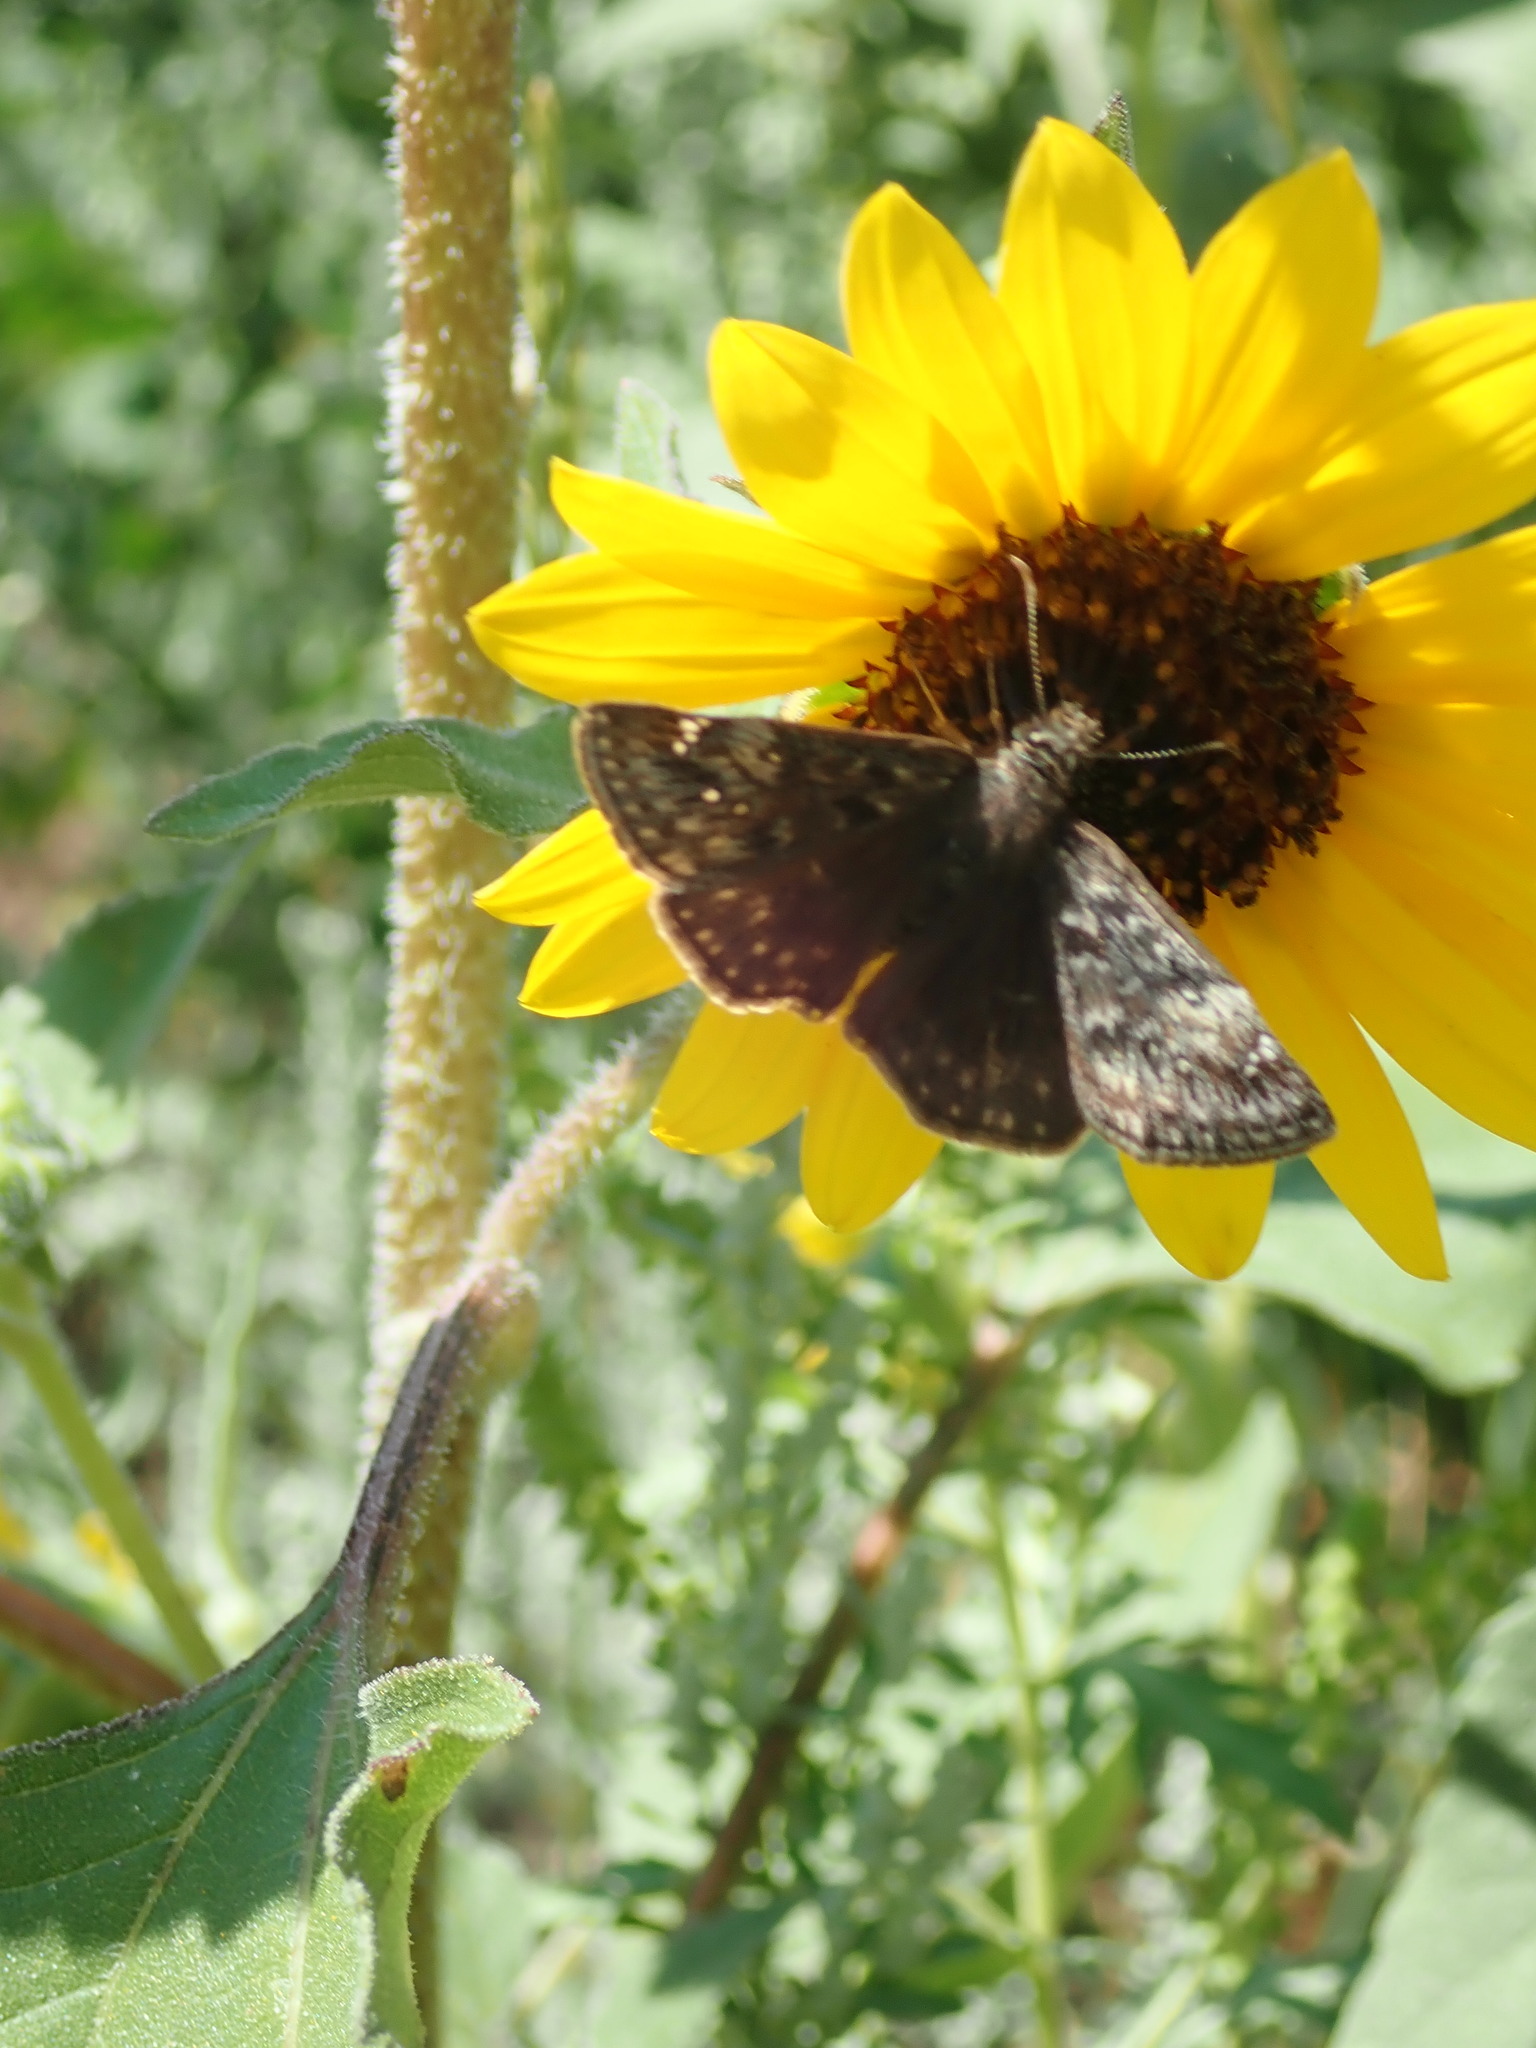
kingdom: Animalia
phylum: Arthropoda
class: Insecta
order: Lepidoptera
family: Hesperiidae
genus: Erynnis
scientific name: Erynnis afranius
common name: Afranius duskywing
